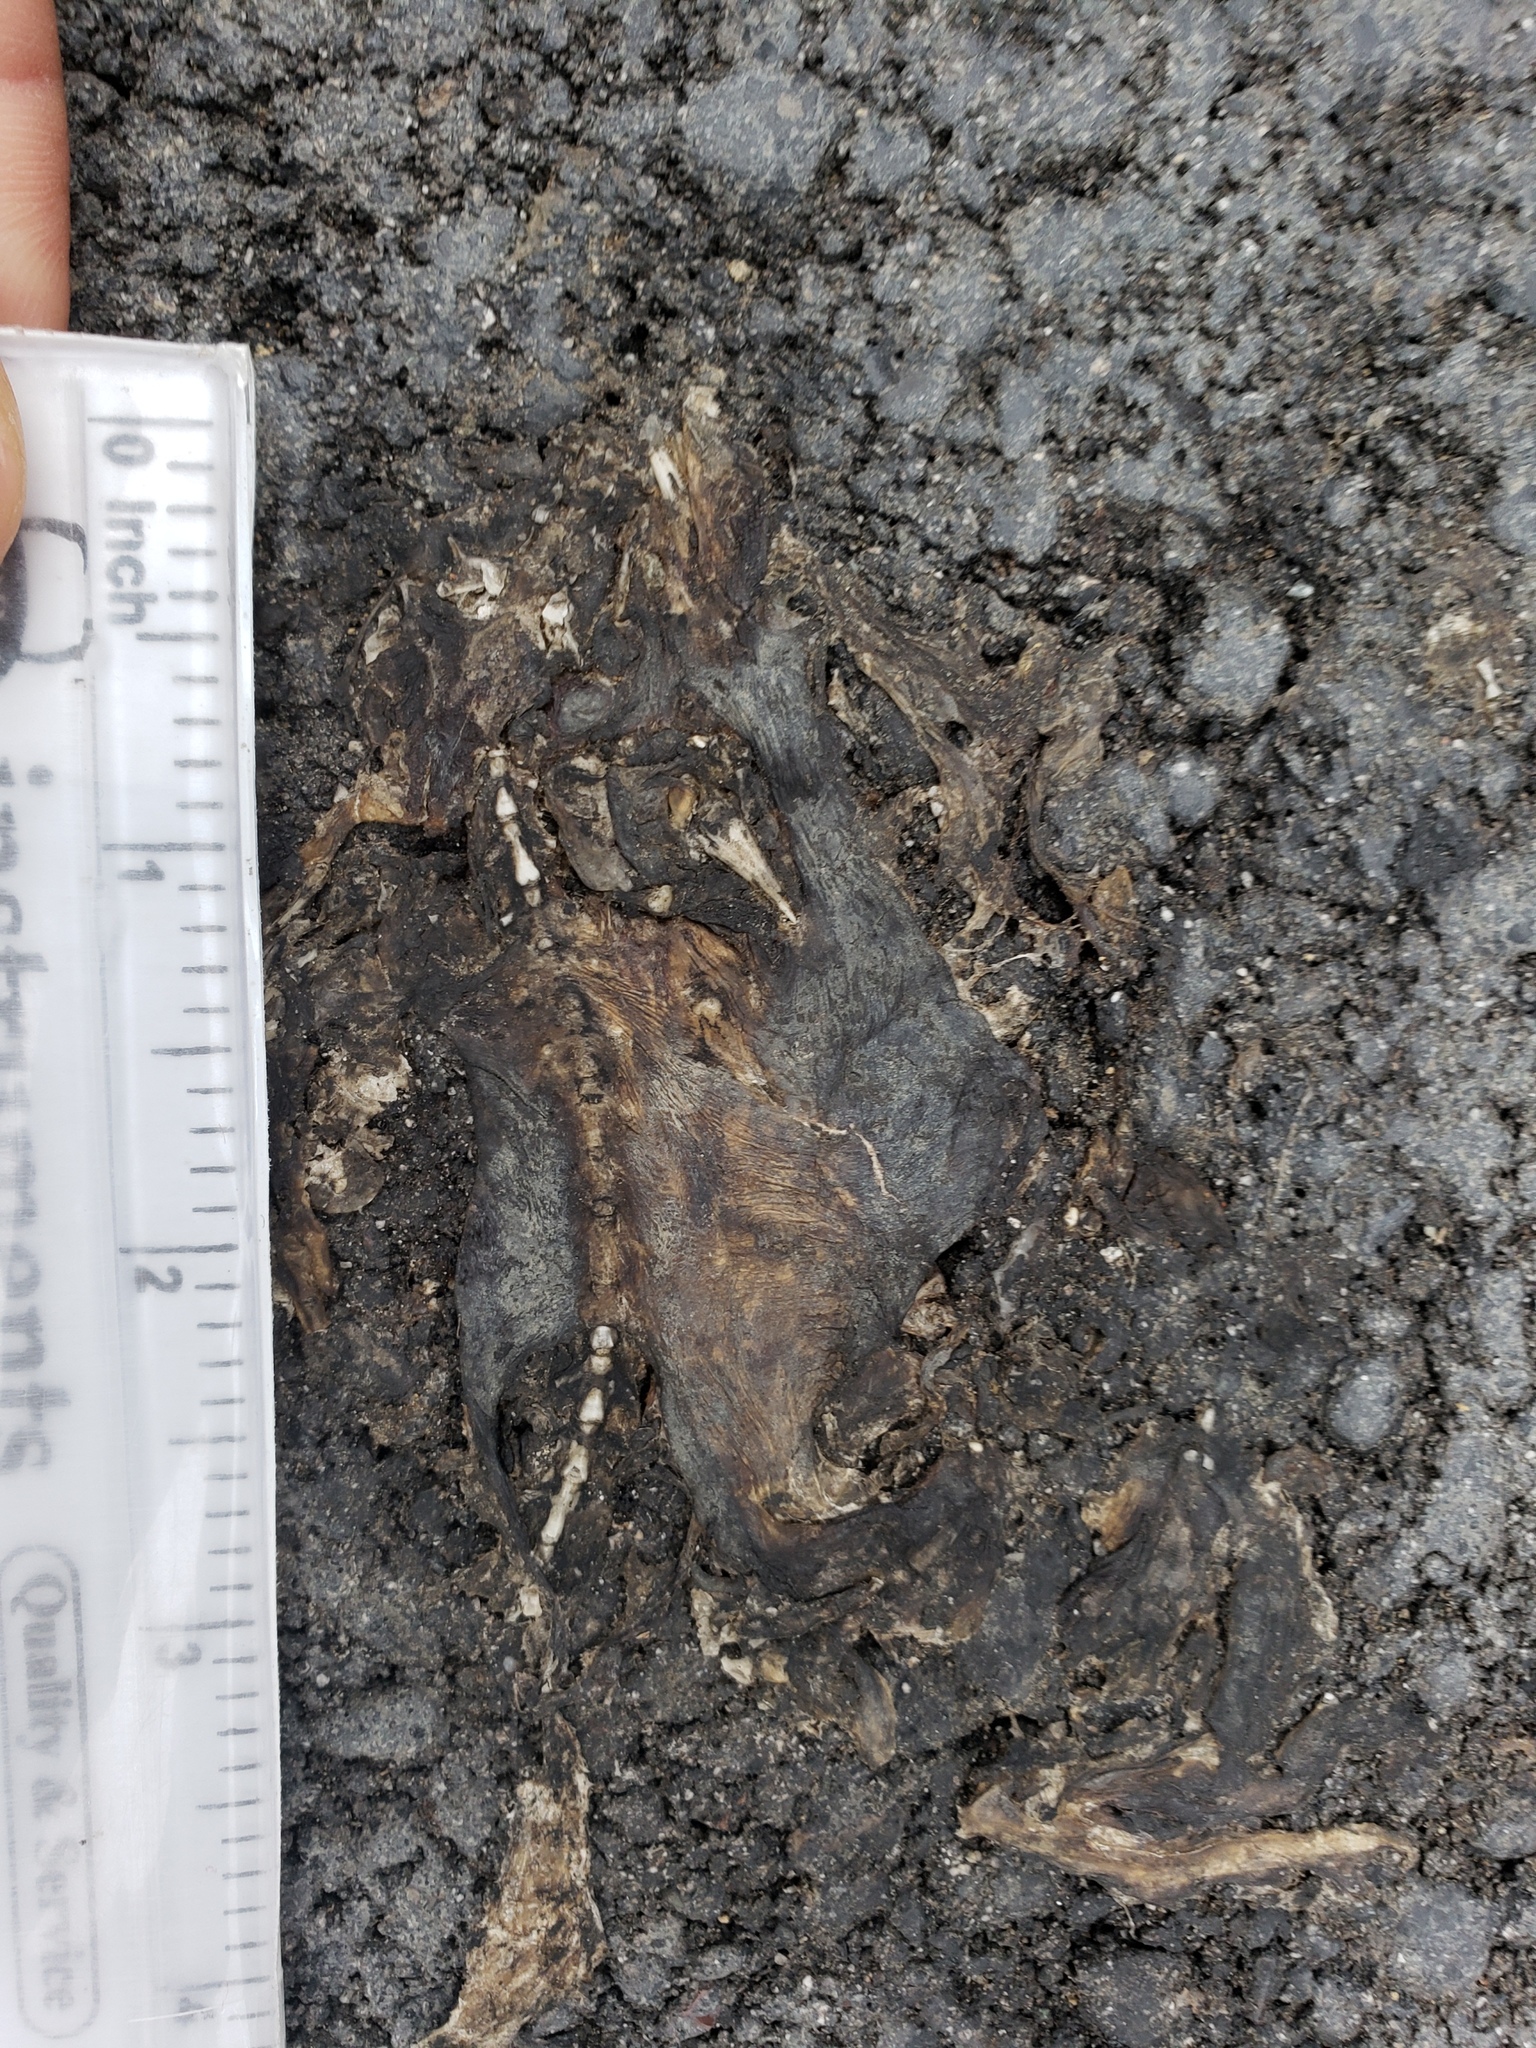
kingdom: Animalia
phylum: Chordata
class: Amphibia
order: Caudata
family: Salamandridae
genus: Taricha
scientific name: Taricha
